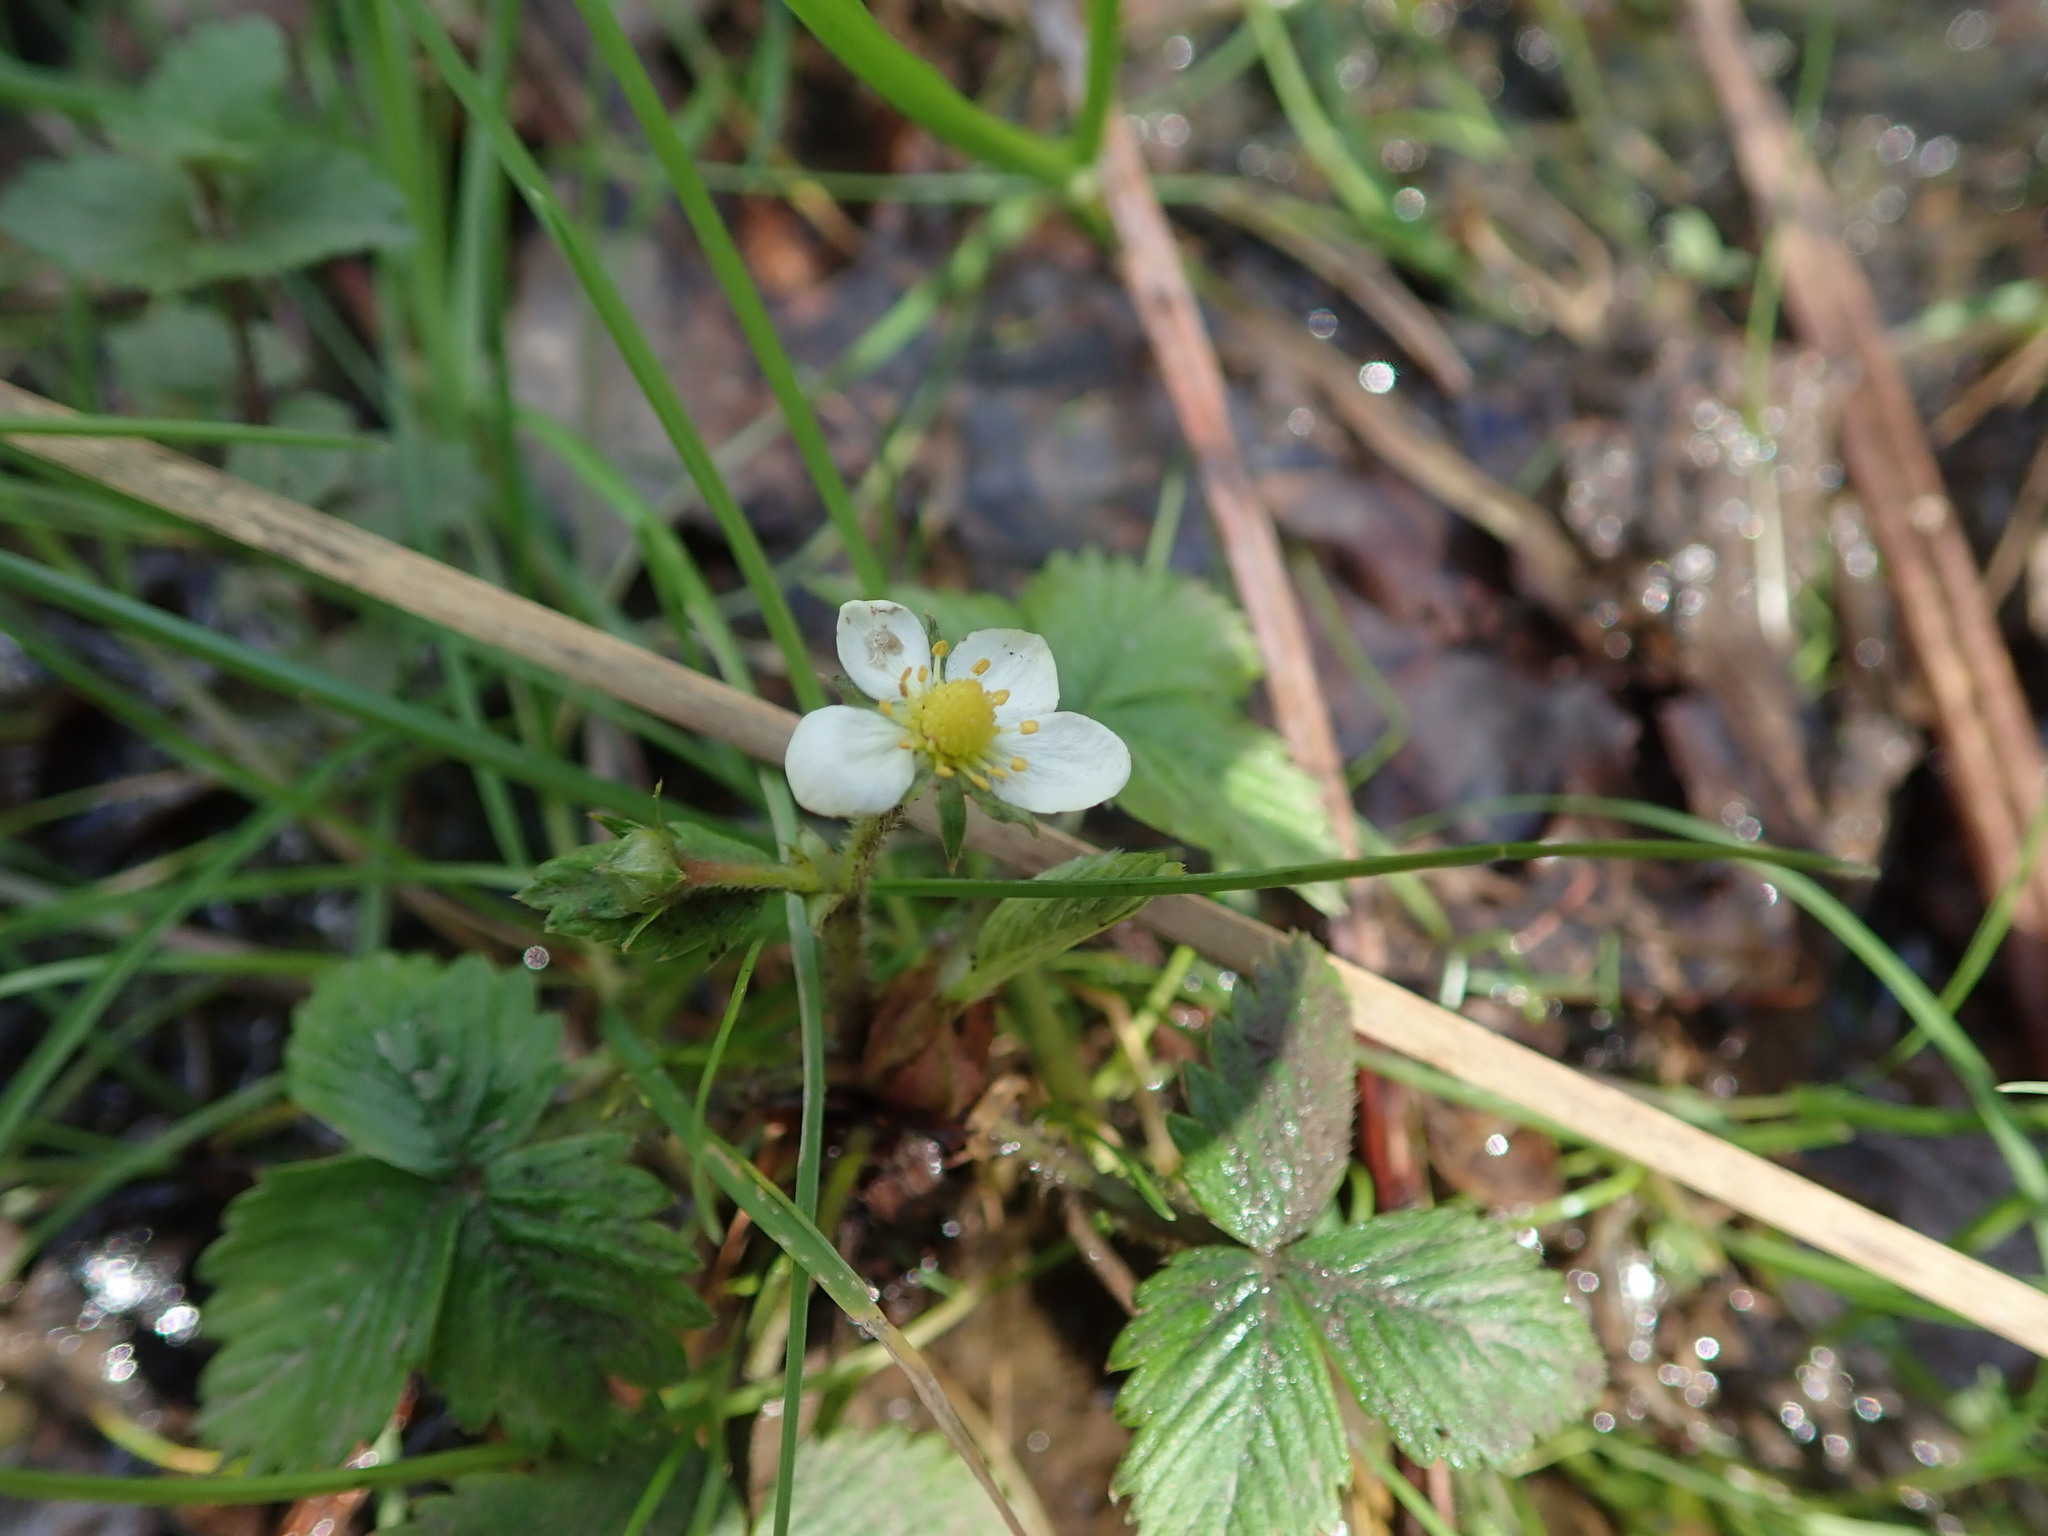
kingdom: Plantae
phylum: Tracheophyta
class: Magnoliopsida
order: Rosales
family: Rosaceae
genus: Fragaria
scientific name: Fragaria vesca
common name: Wild strawberry
